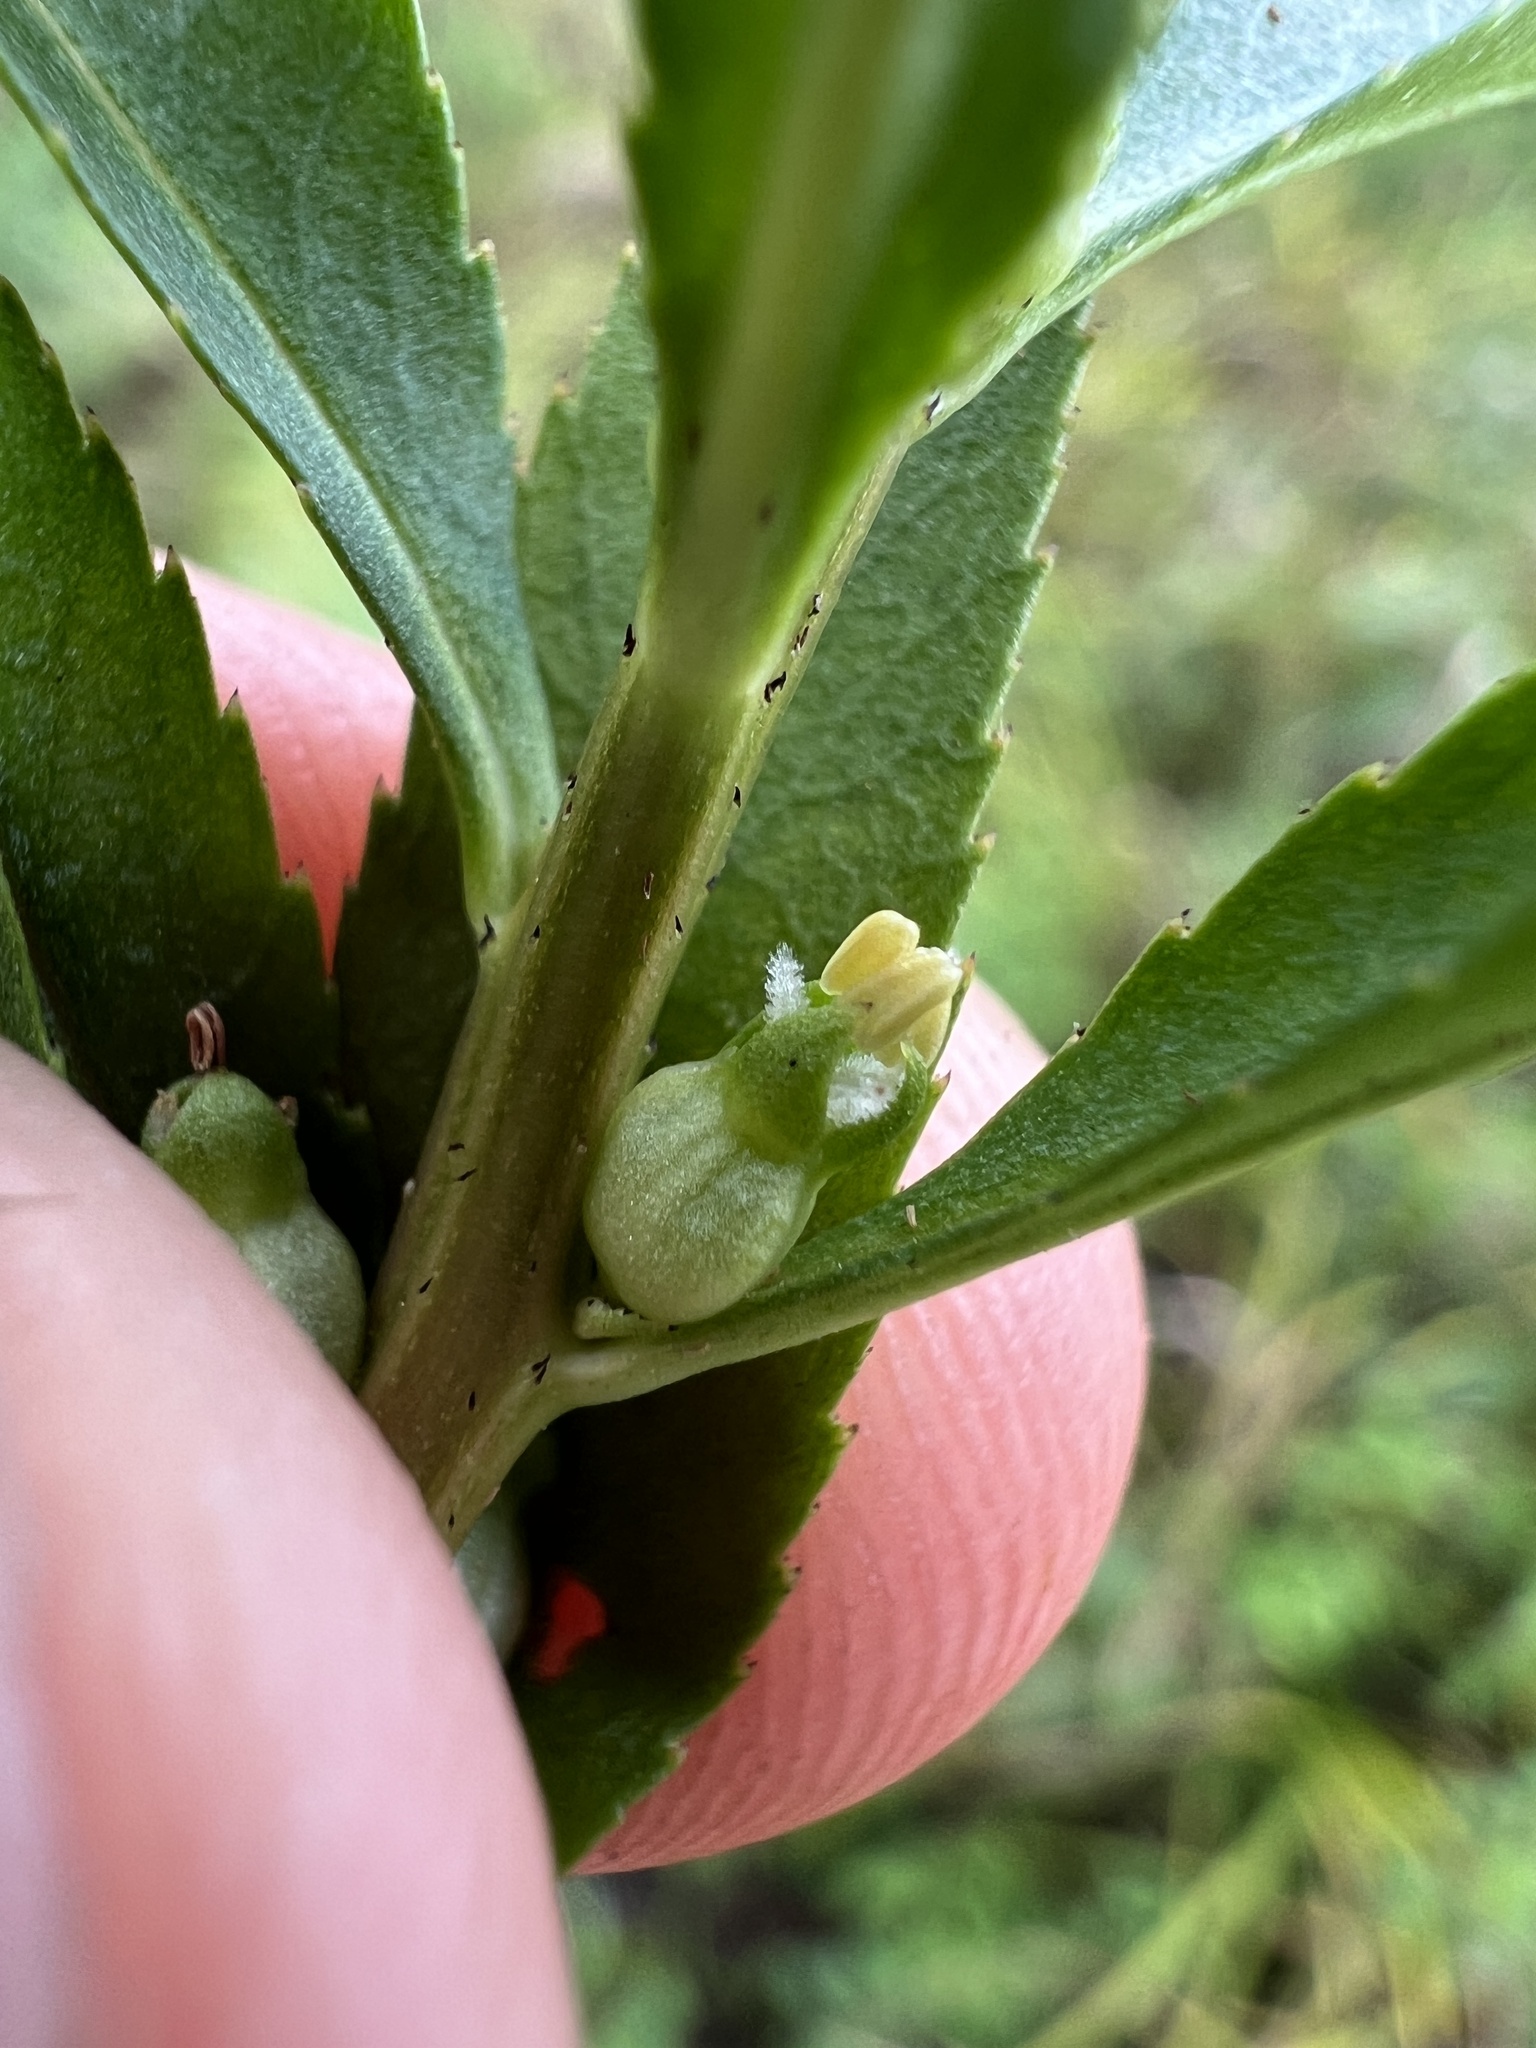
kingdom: Plantae
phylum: Tracheophyta
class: Magnoliopsida
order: Saxifragales
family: Haloragaceae
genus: Proserpinaca
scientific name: Proserpinaca palustris
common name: Marsh mermaidweed
